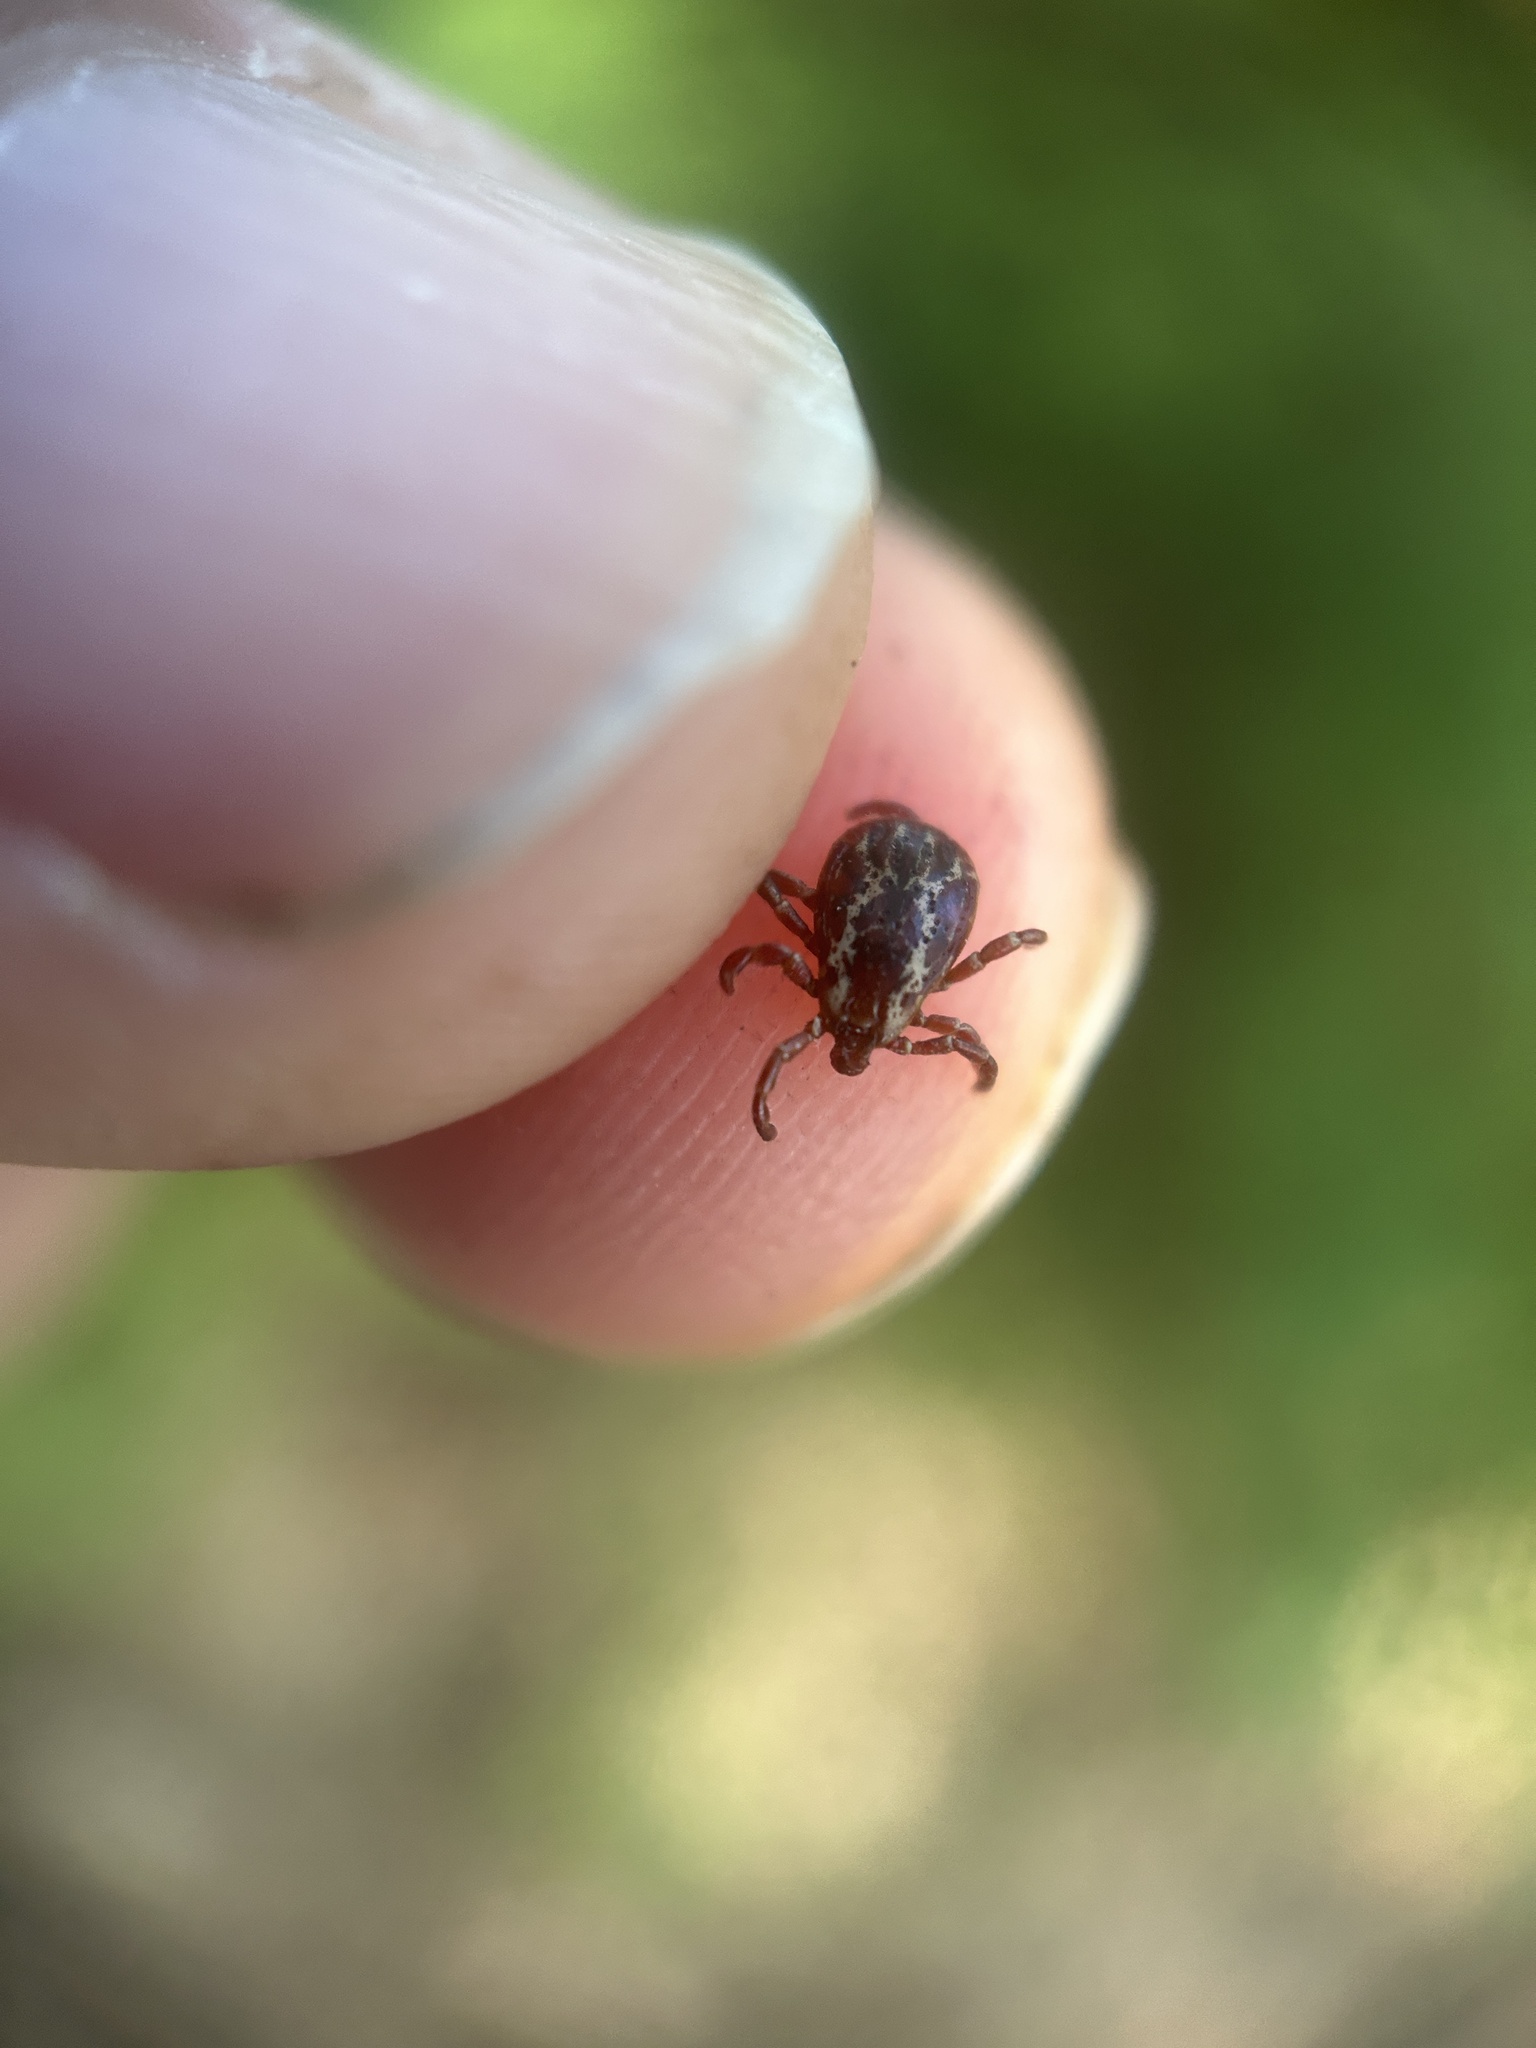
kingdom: Animalia
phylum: Arthropoda
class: Arachnida
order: Ixodida
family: Ixodidae
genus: Dermacentor
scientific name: Dermacentor variabilis
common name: American dog tick
